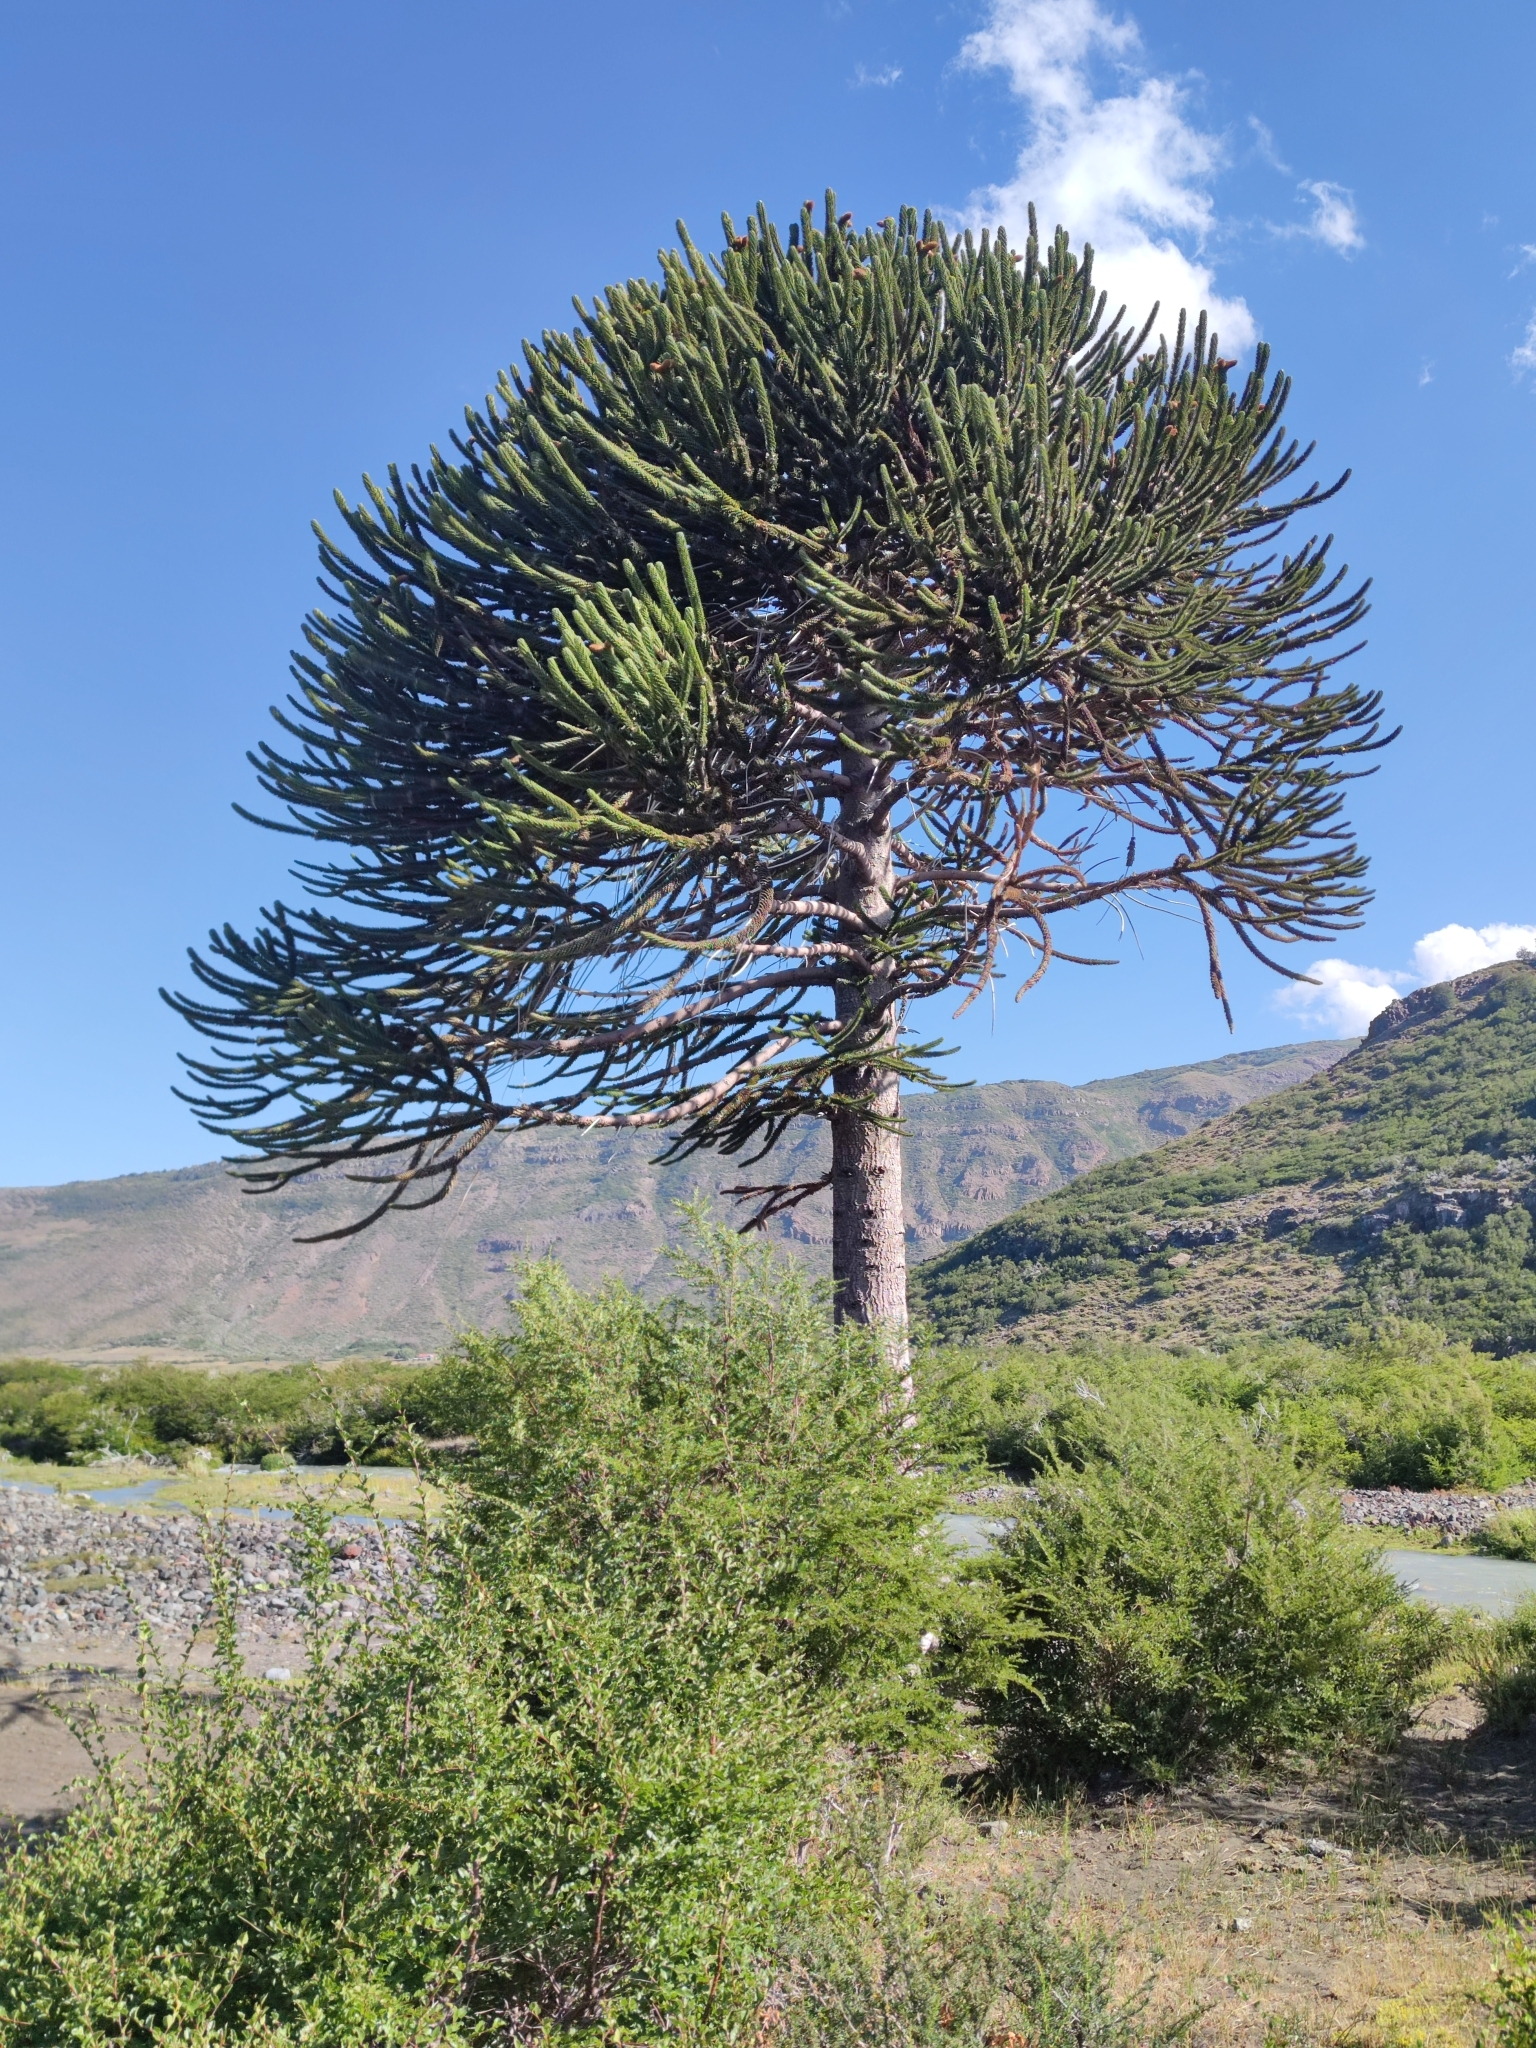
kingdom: Plantae
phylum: Tracheophyta
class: Pinopsida
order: Pinales
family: Araucariaceae
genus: Araucaria
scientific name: Araucaria araucana
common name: Monkey-puzzle
